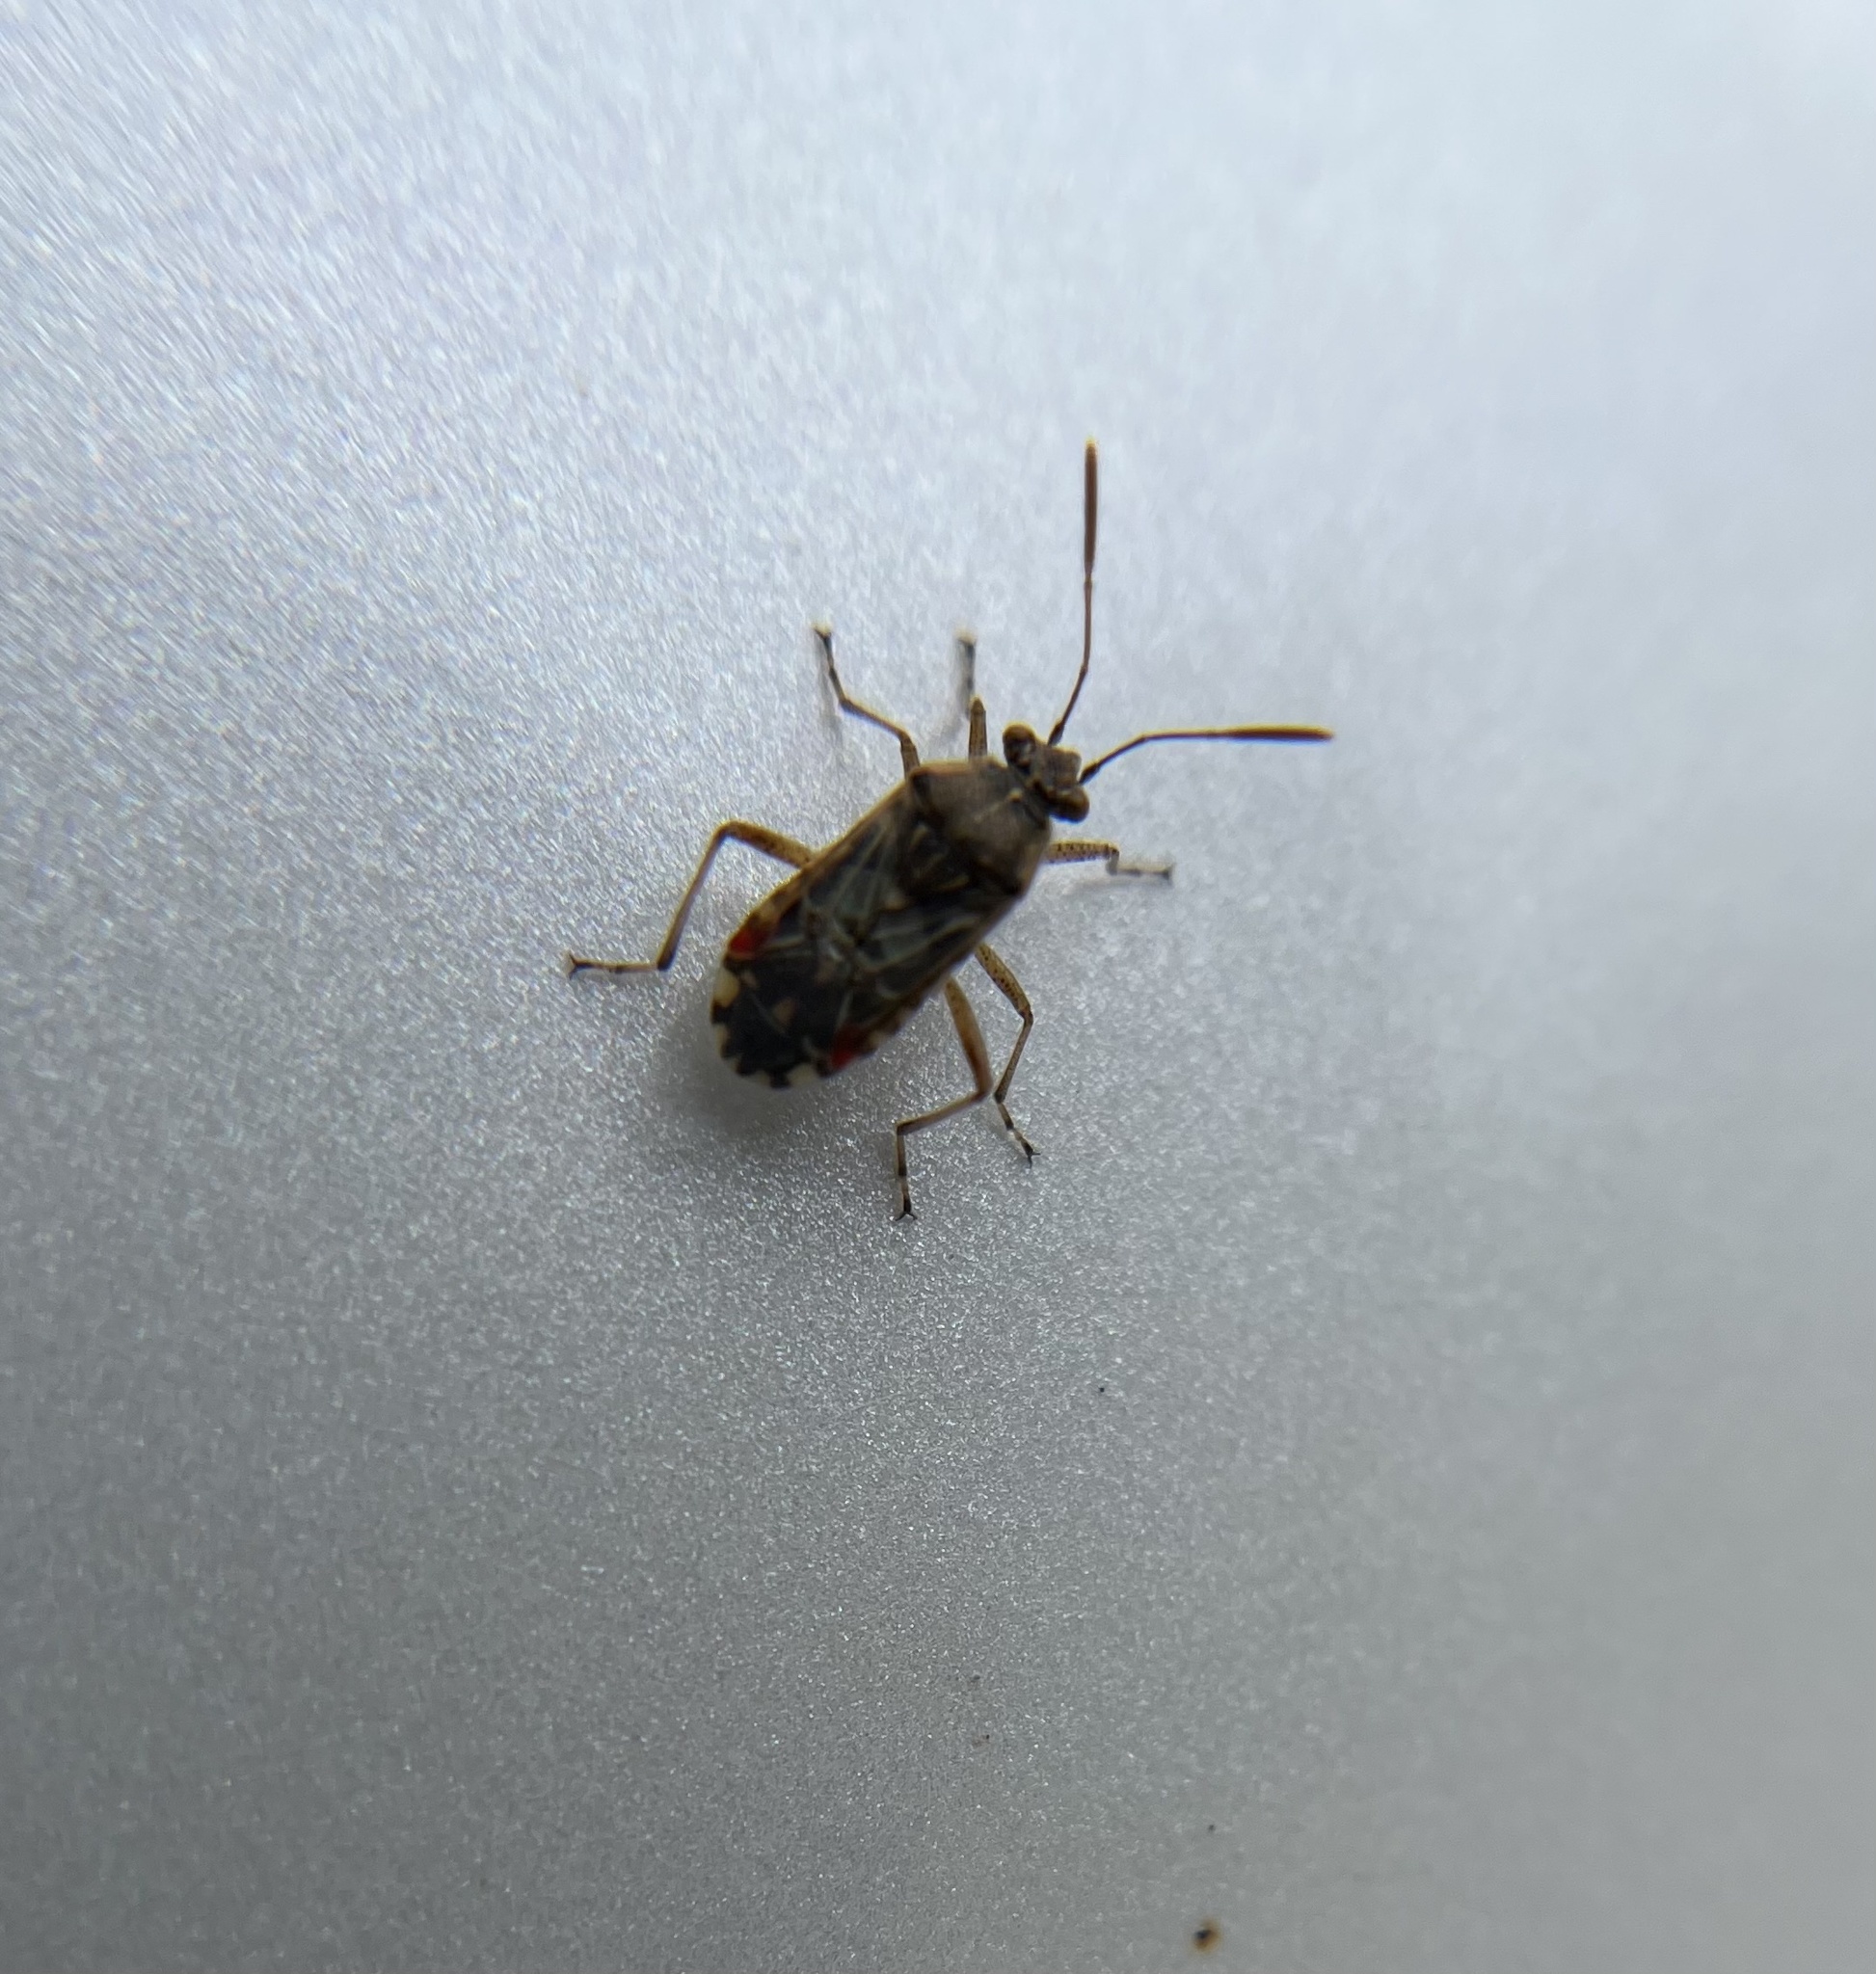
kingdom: Animalia
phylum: Arthropoda
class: Insecta
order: Hemiptera
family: Rhopalidae
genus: Liorhyssus
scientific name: Liorhyssus hyalinus
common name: Scentless plant bug
